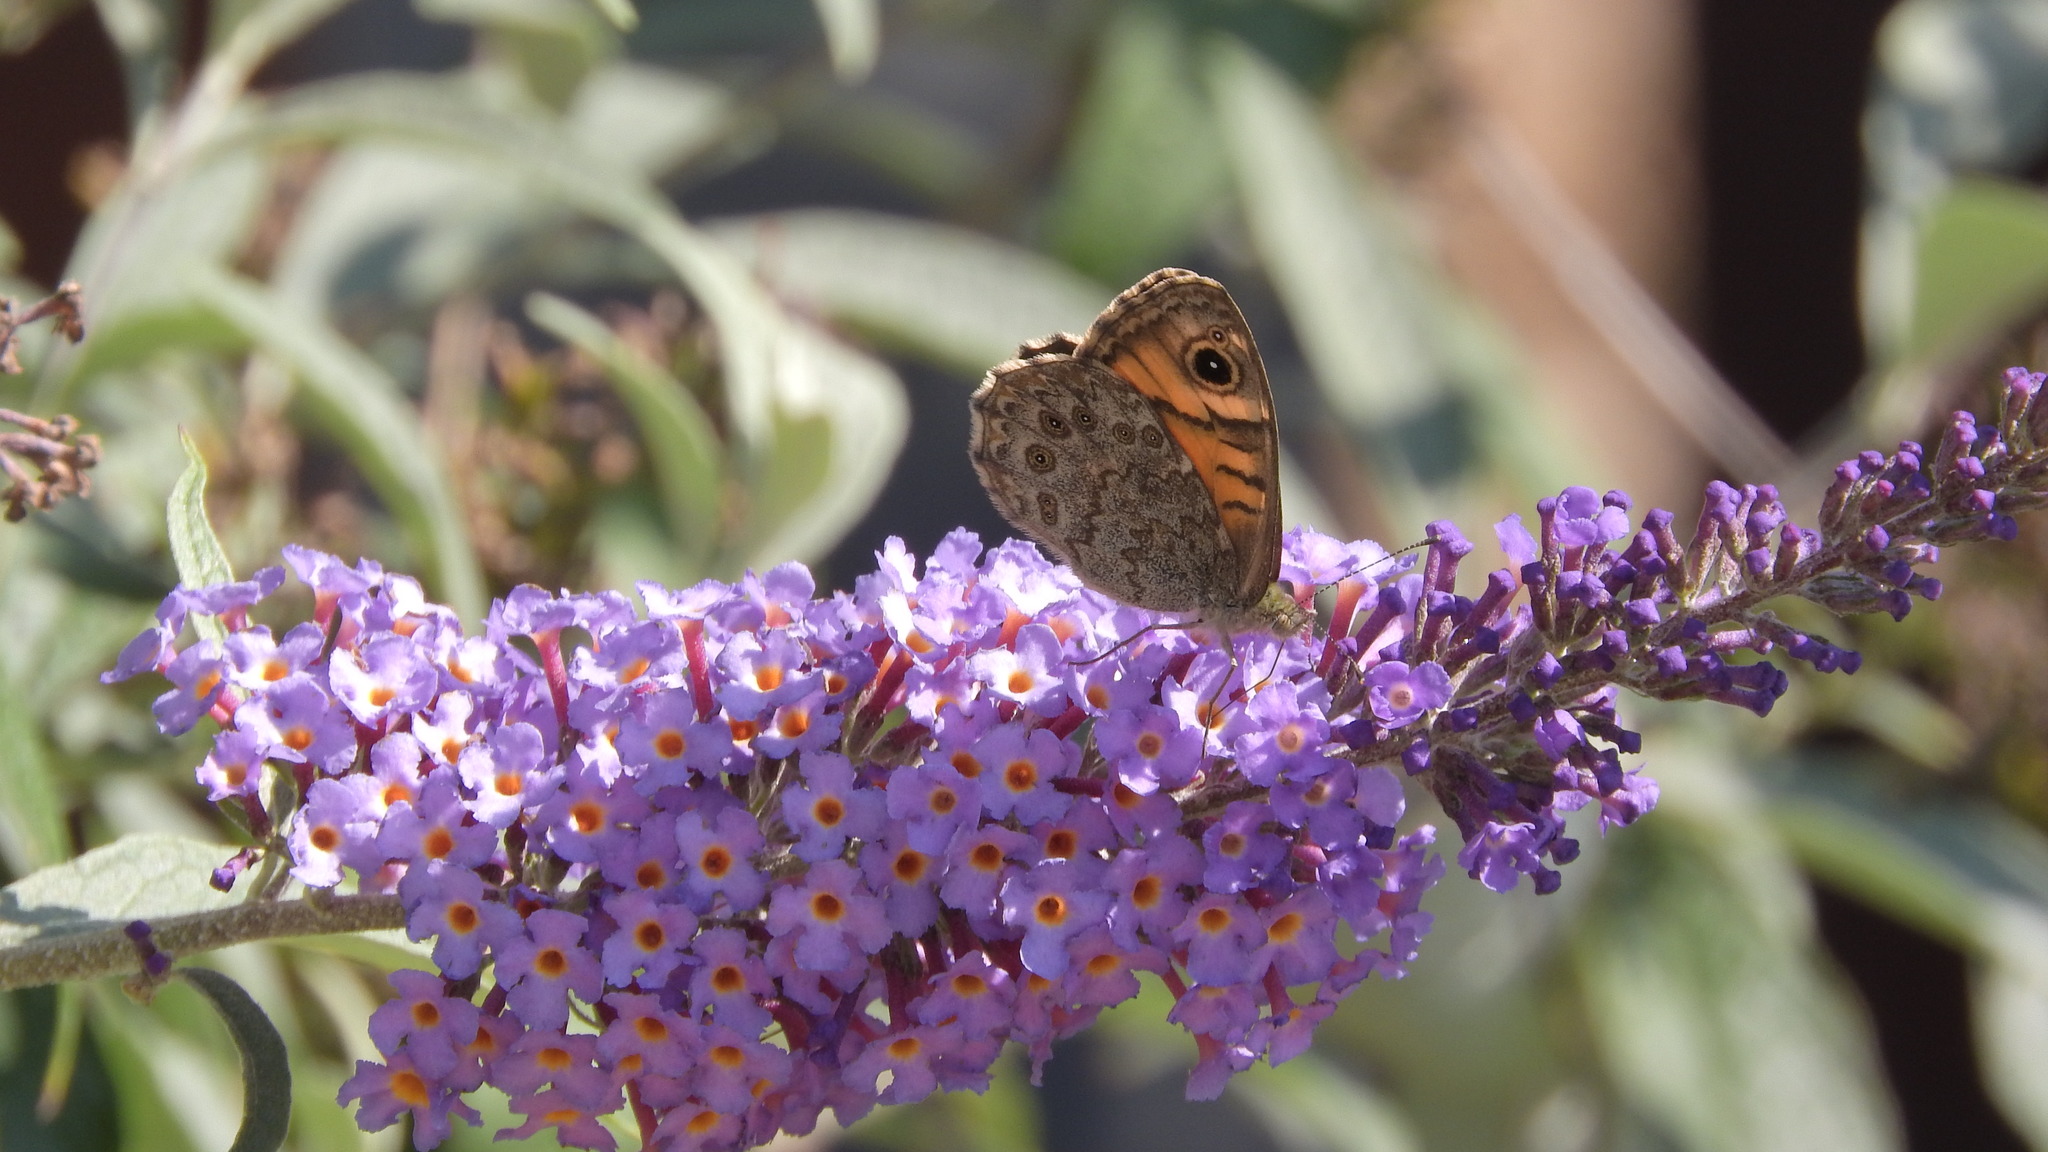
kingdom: Animalia
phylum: Arthropoda
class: Insecta
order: Lepidoptera
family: Nymphalidae
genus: Pararge
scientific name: Pararge Lasiommata megera
